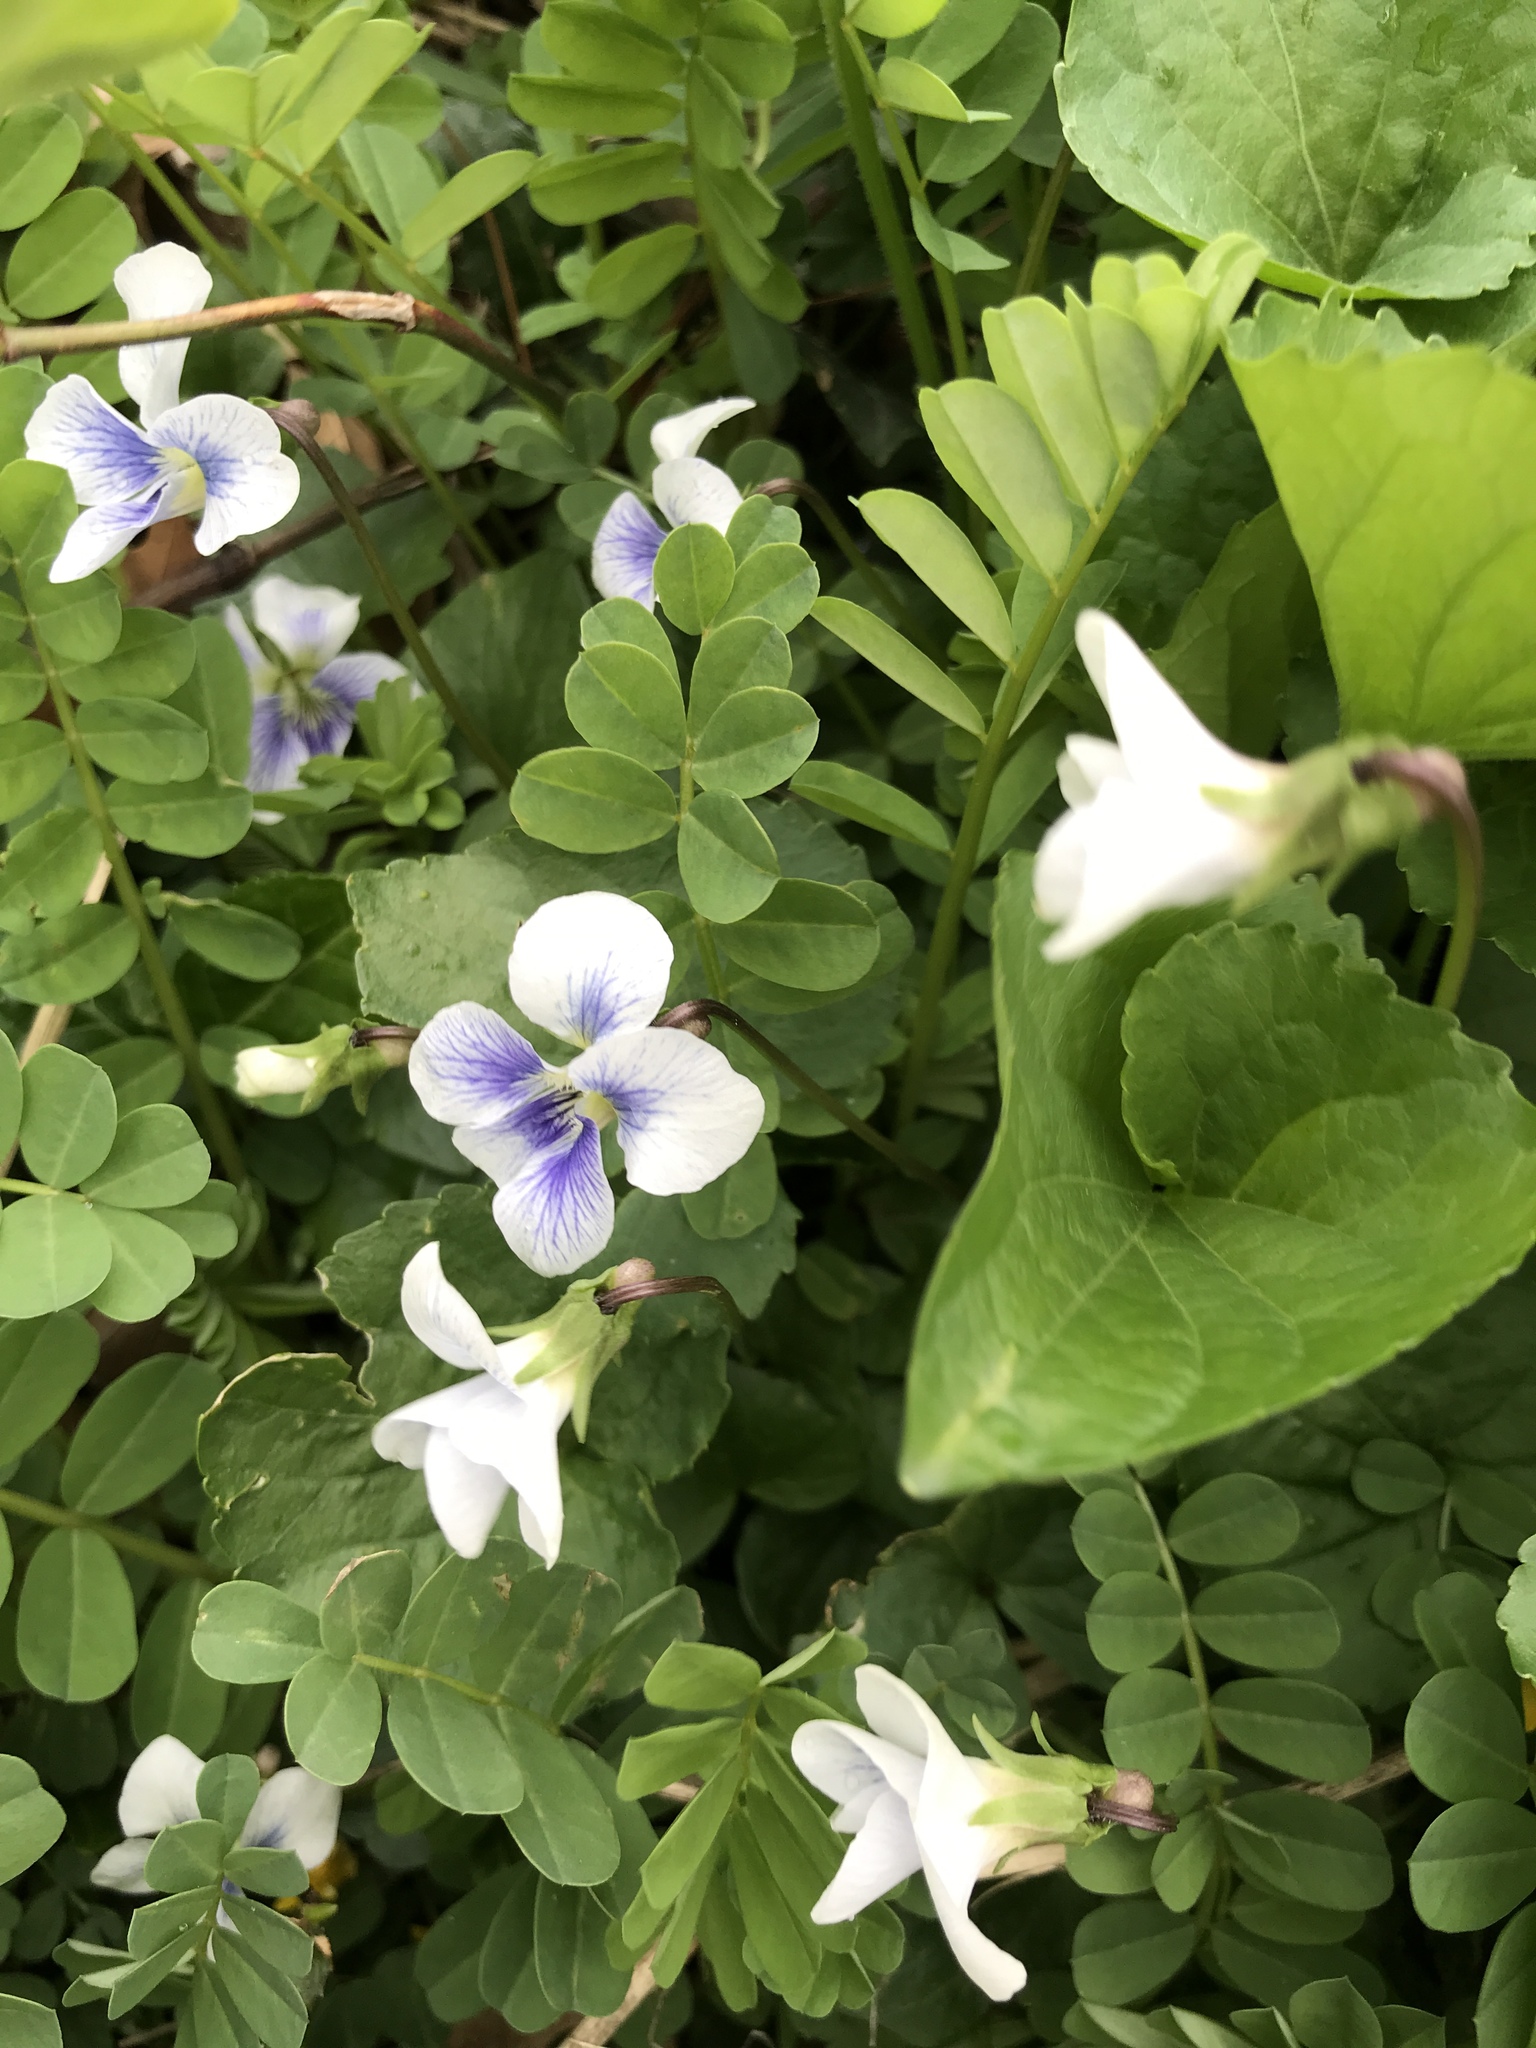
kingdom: Plantae
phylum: Tracheophyta
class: Magnoliopsida
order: Malpighiales
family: Violaceae
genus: Viola
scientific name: Viola sororia
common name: Dooryard violet
